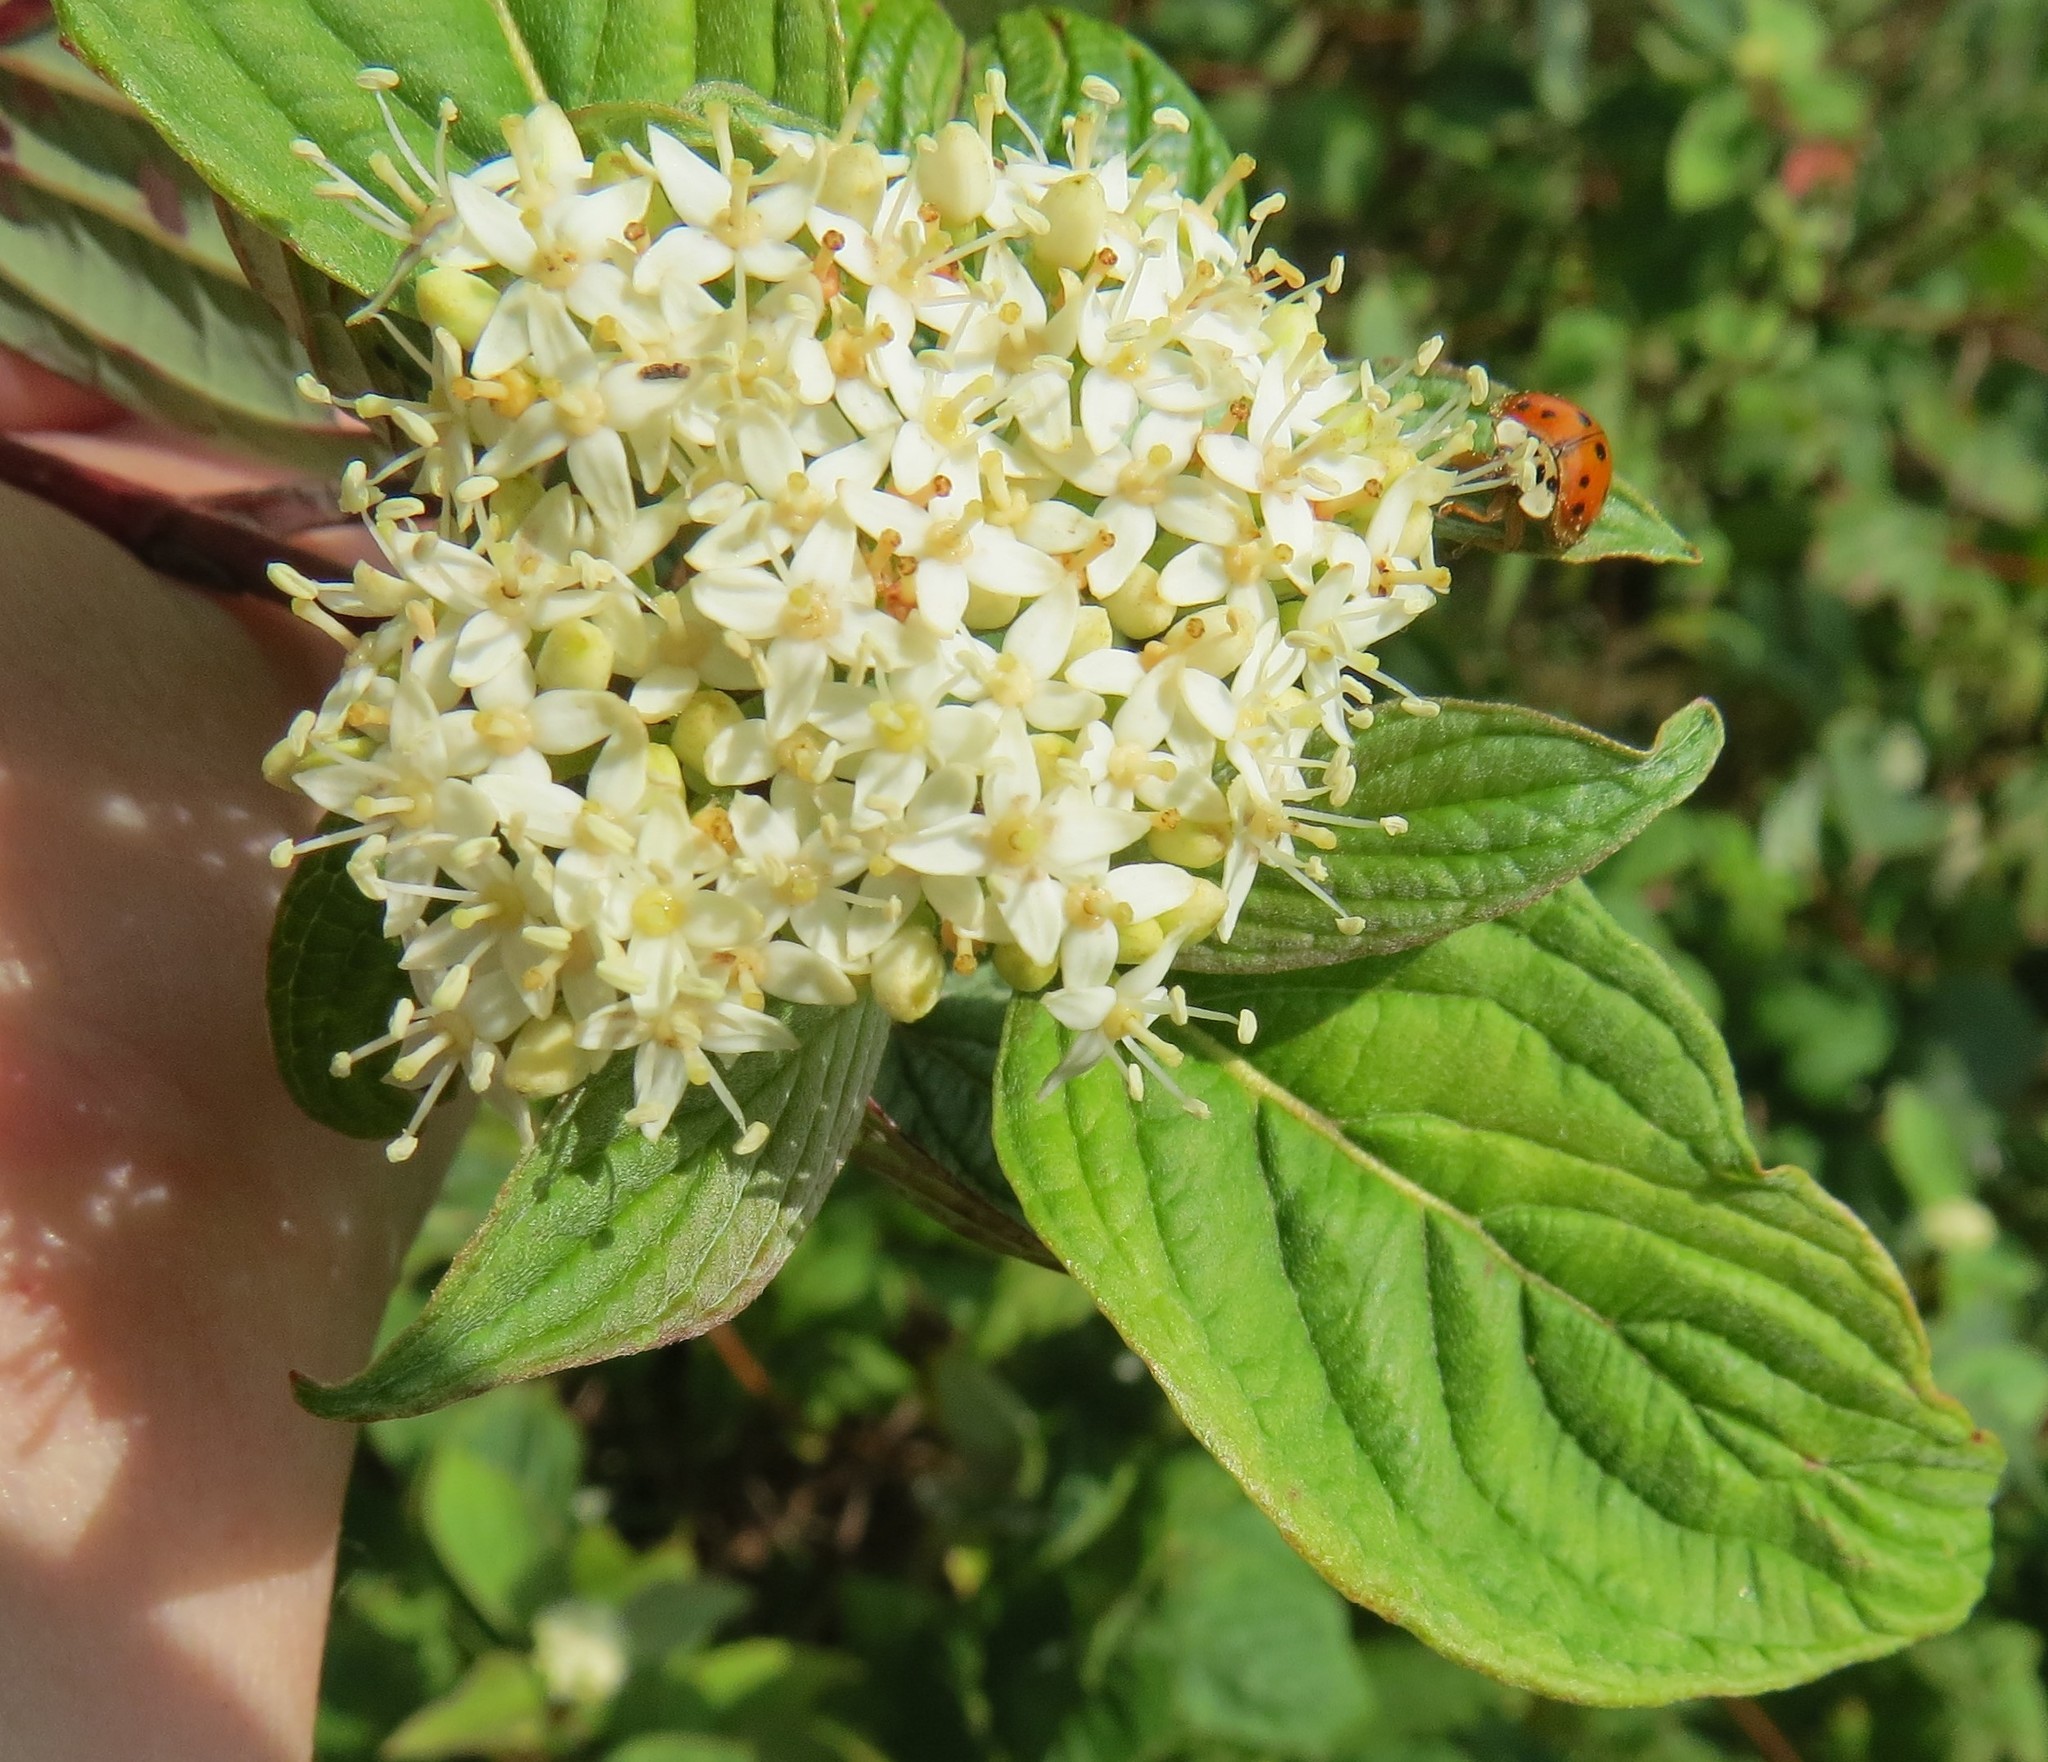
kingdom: Plantae
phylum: Tracheophyta
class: Magnoliopsida
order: Cornales
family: Cornaceae
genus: Cornus
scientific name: Cornus sericea
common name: Red-osier dogwood
